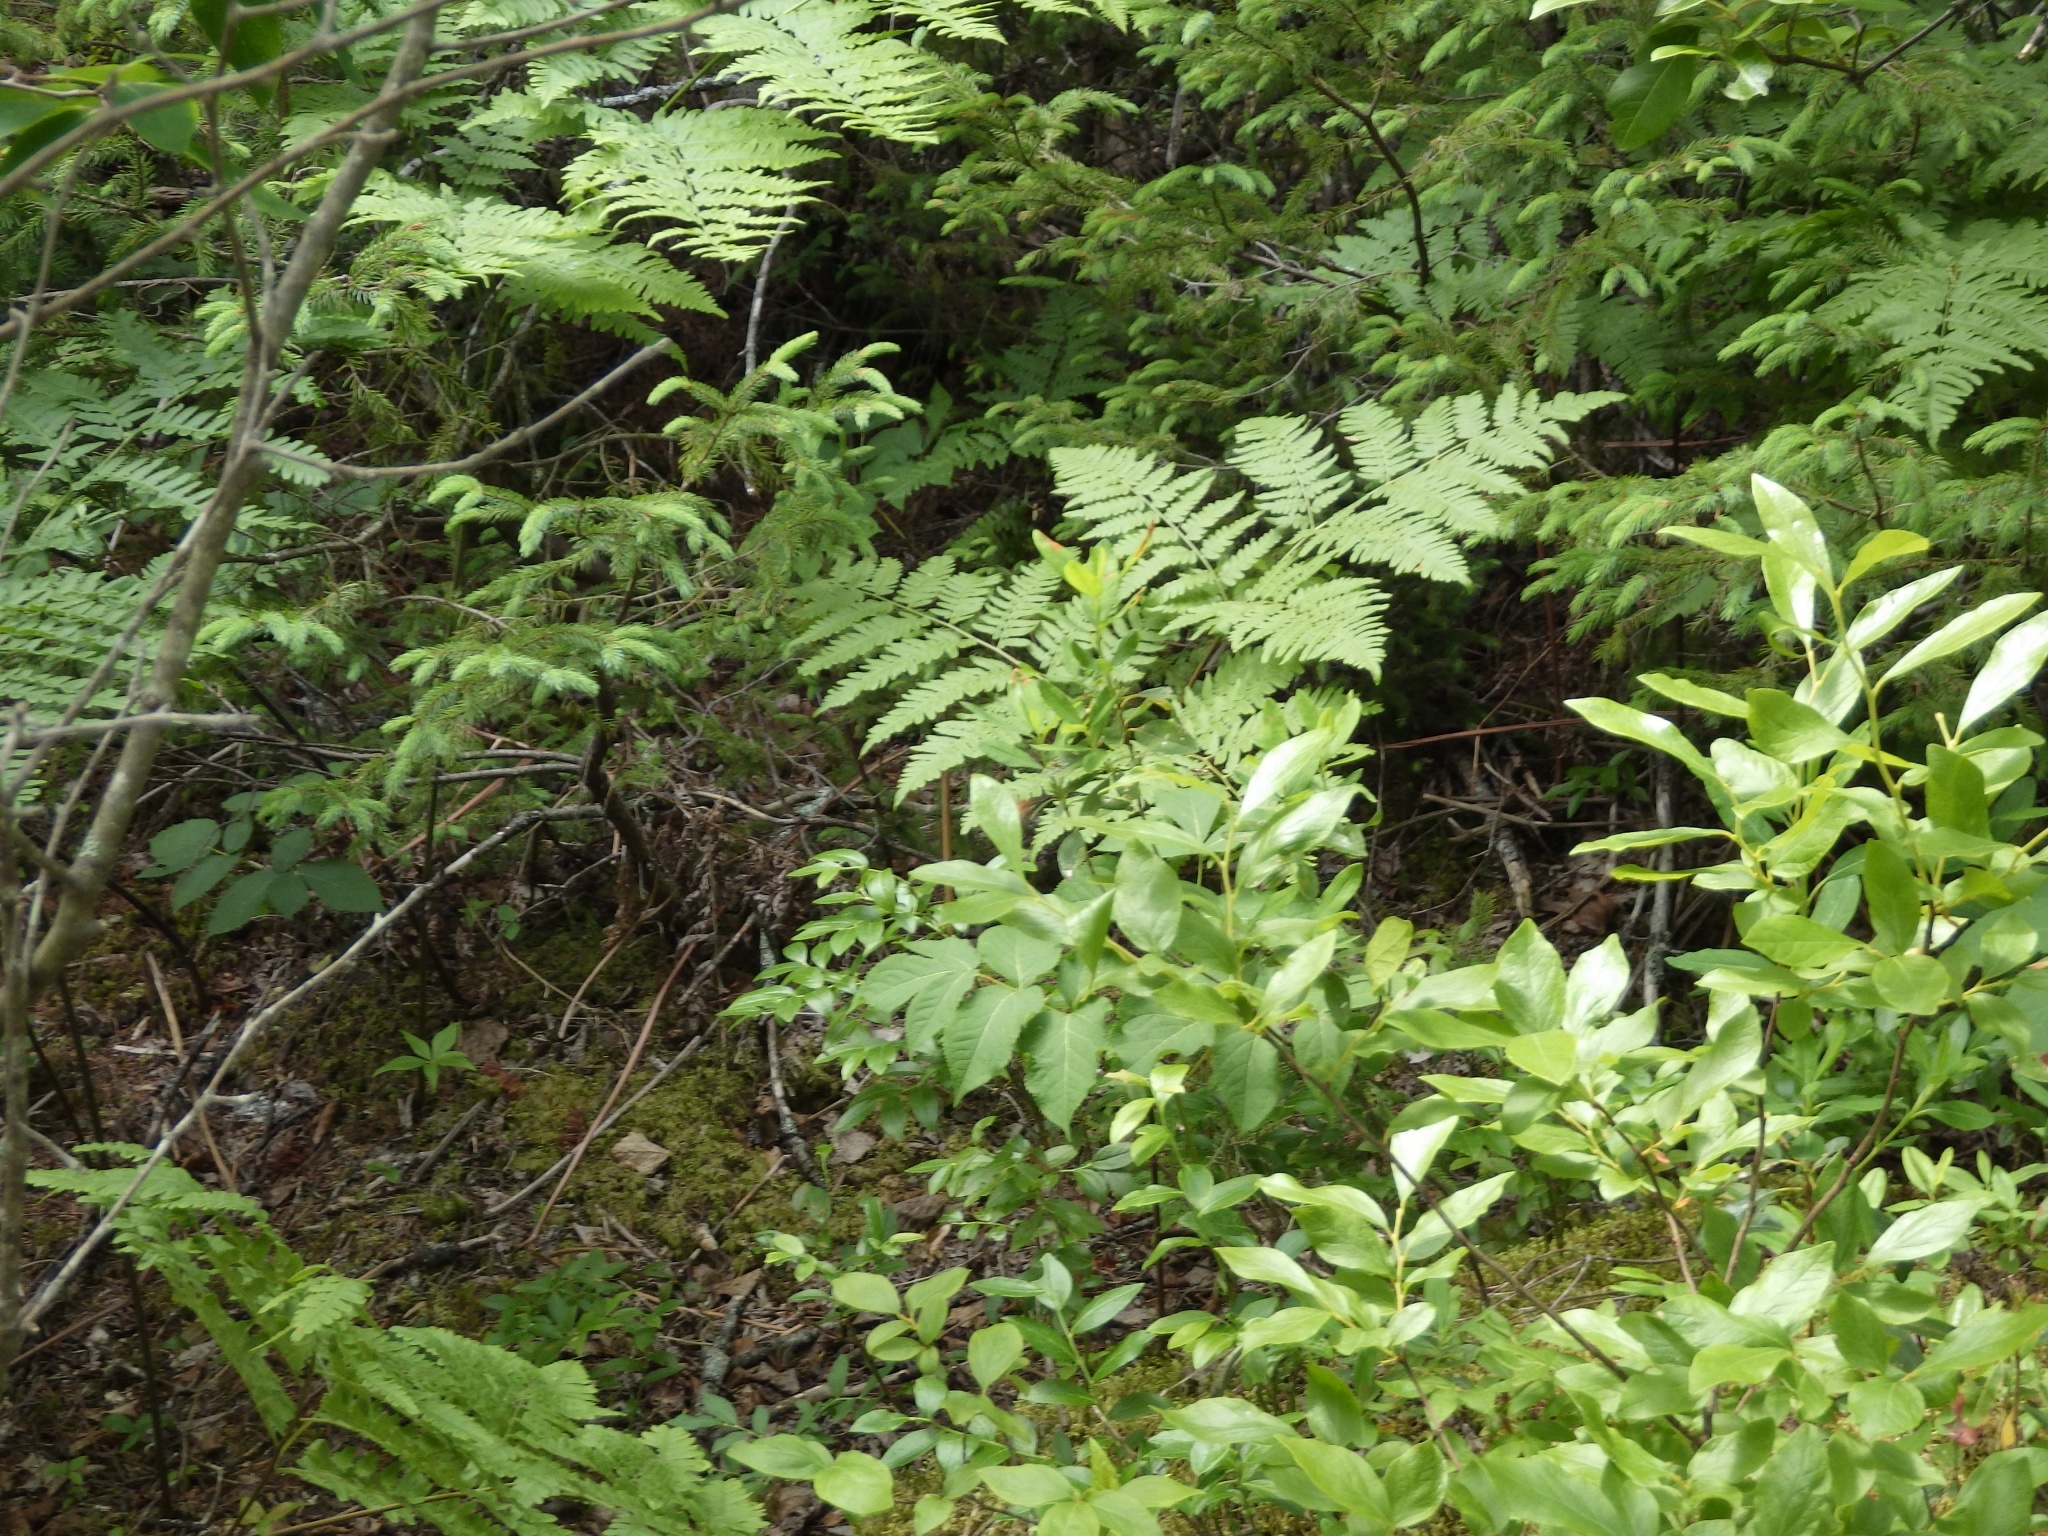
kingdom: Plantae
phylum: Tracheophyta
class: Polypodiopsida
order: Polypodiales
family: Dennstaedtiaceae
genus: Pteridium
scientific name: Pteridium aquilinum
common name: Bracken
